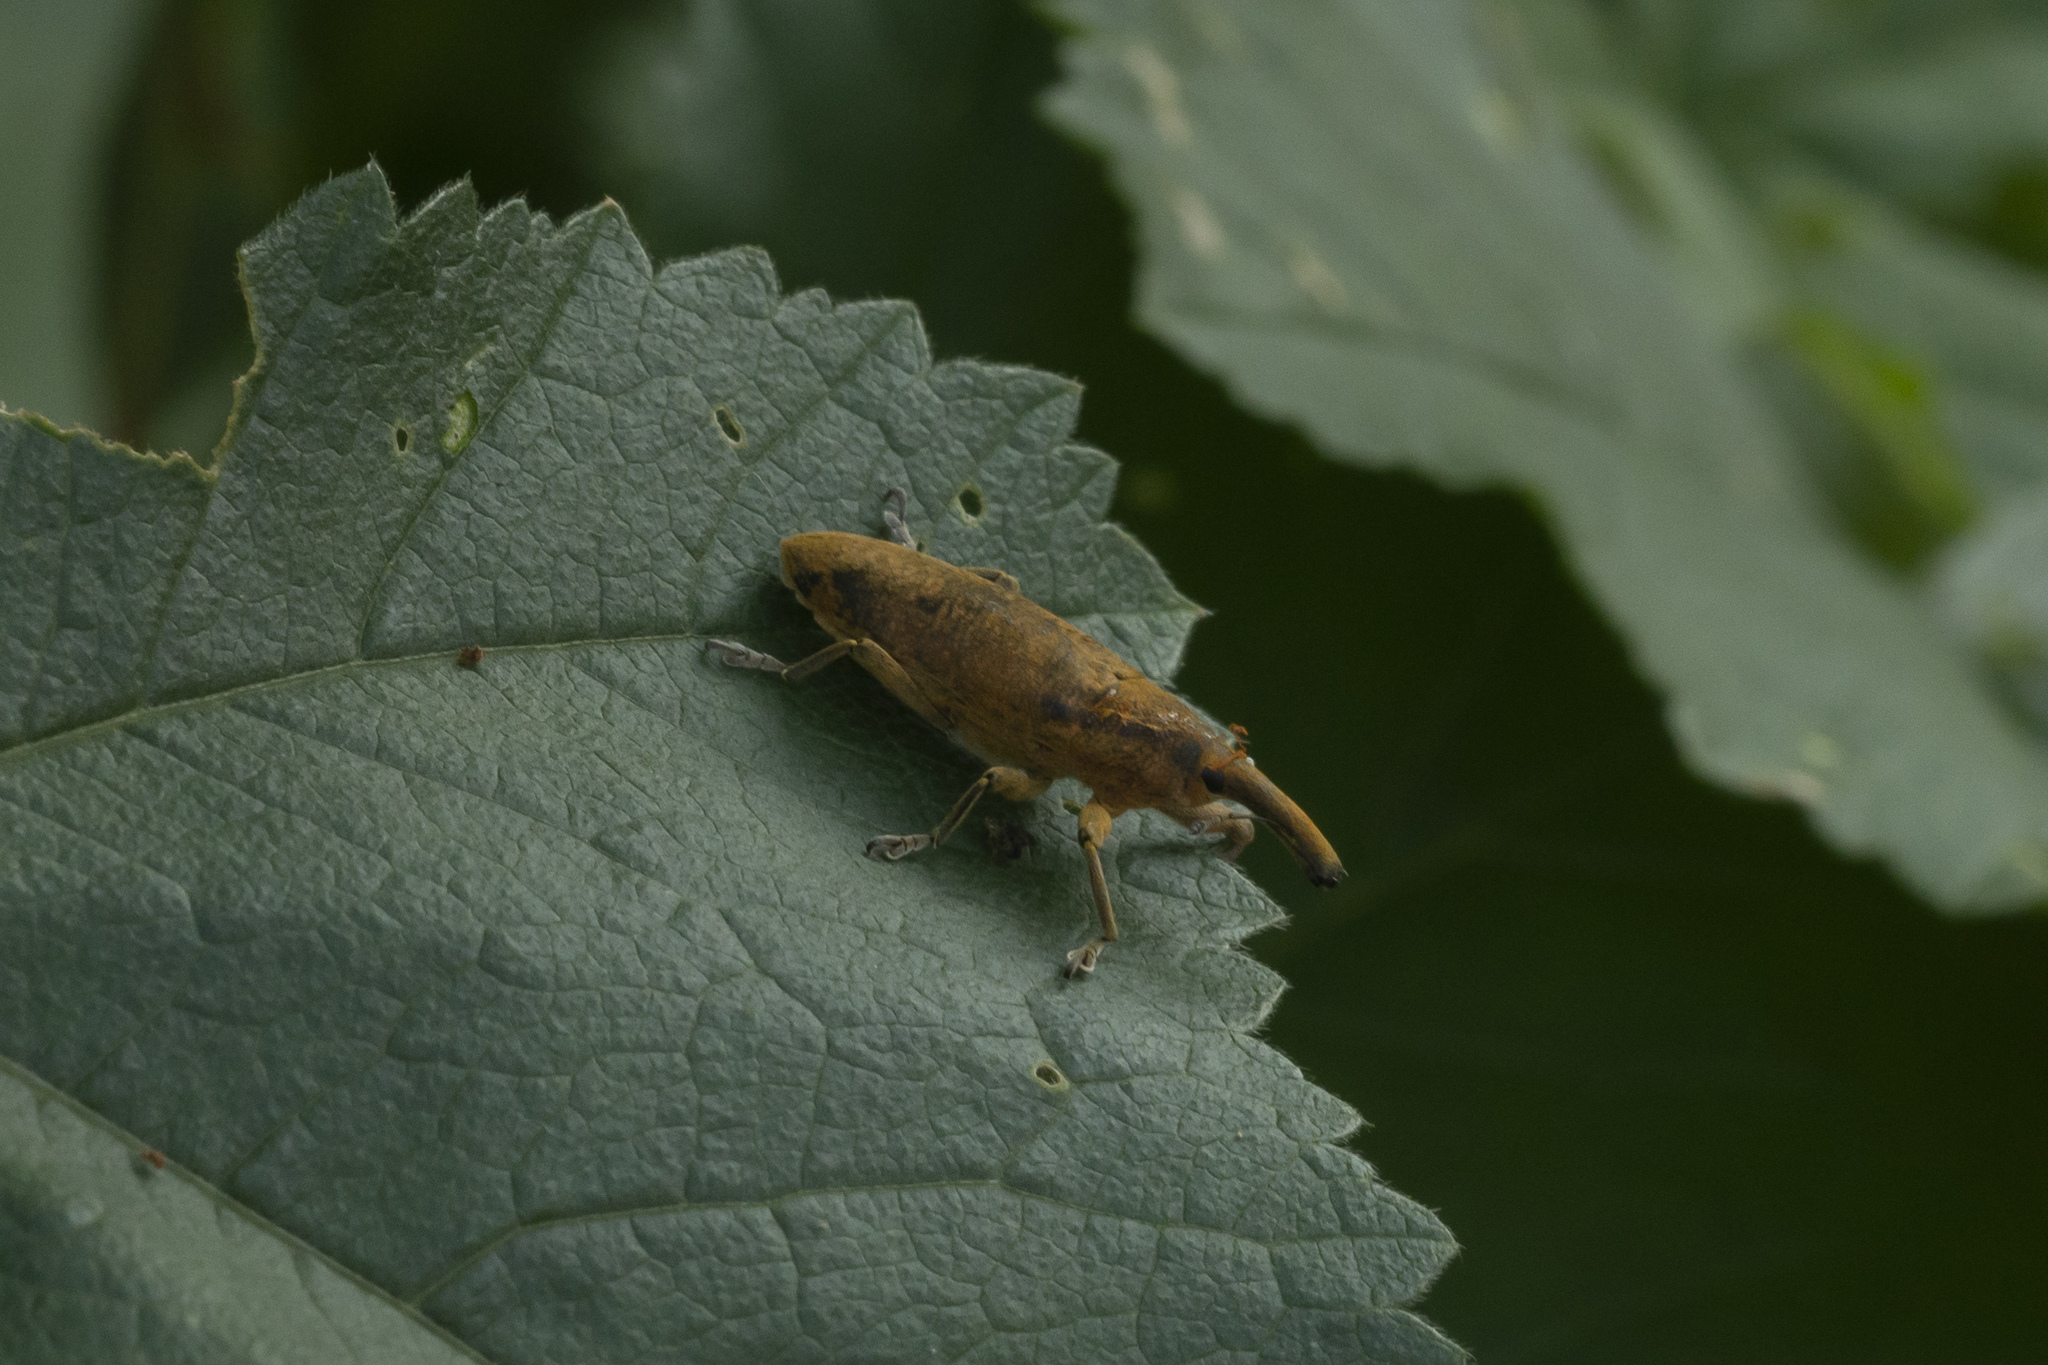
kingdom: Animalia
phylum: Arthropoda
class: Insecta
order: Coleoptera
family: Curculionidae
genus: Lixus
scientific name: Lixus pulverulentus
